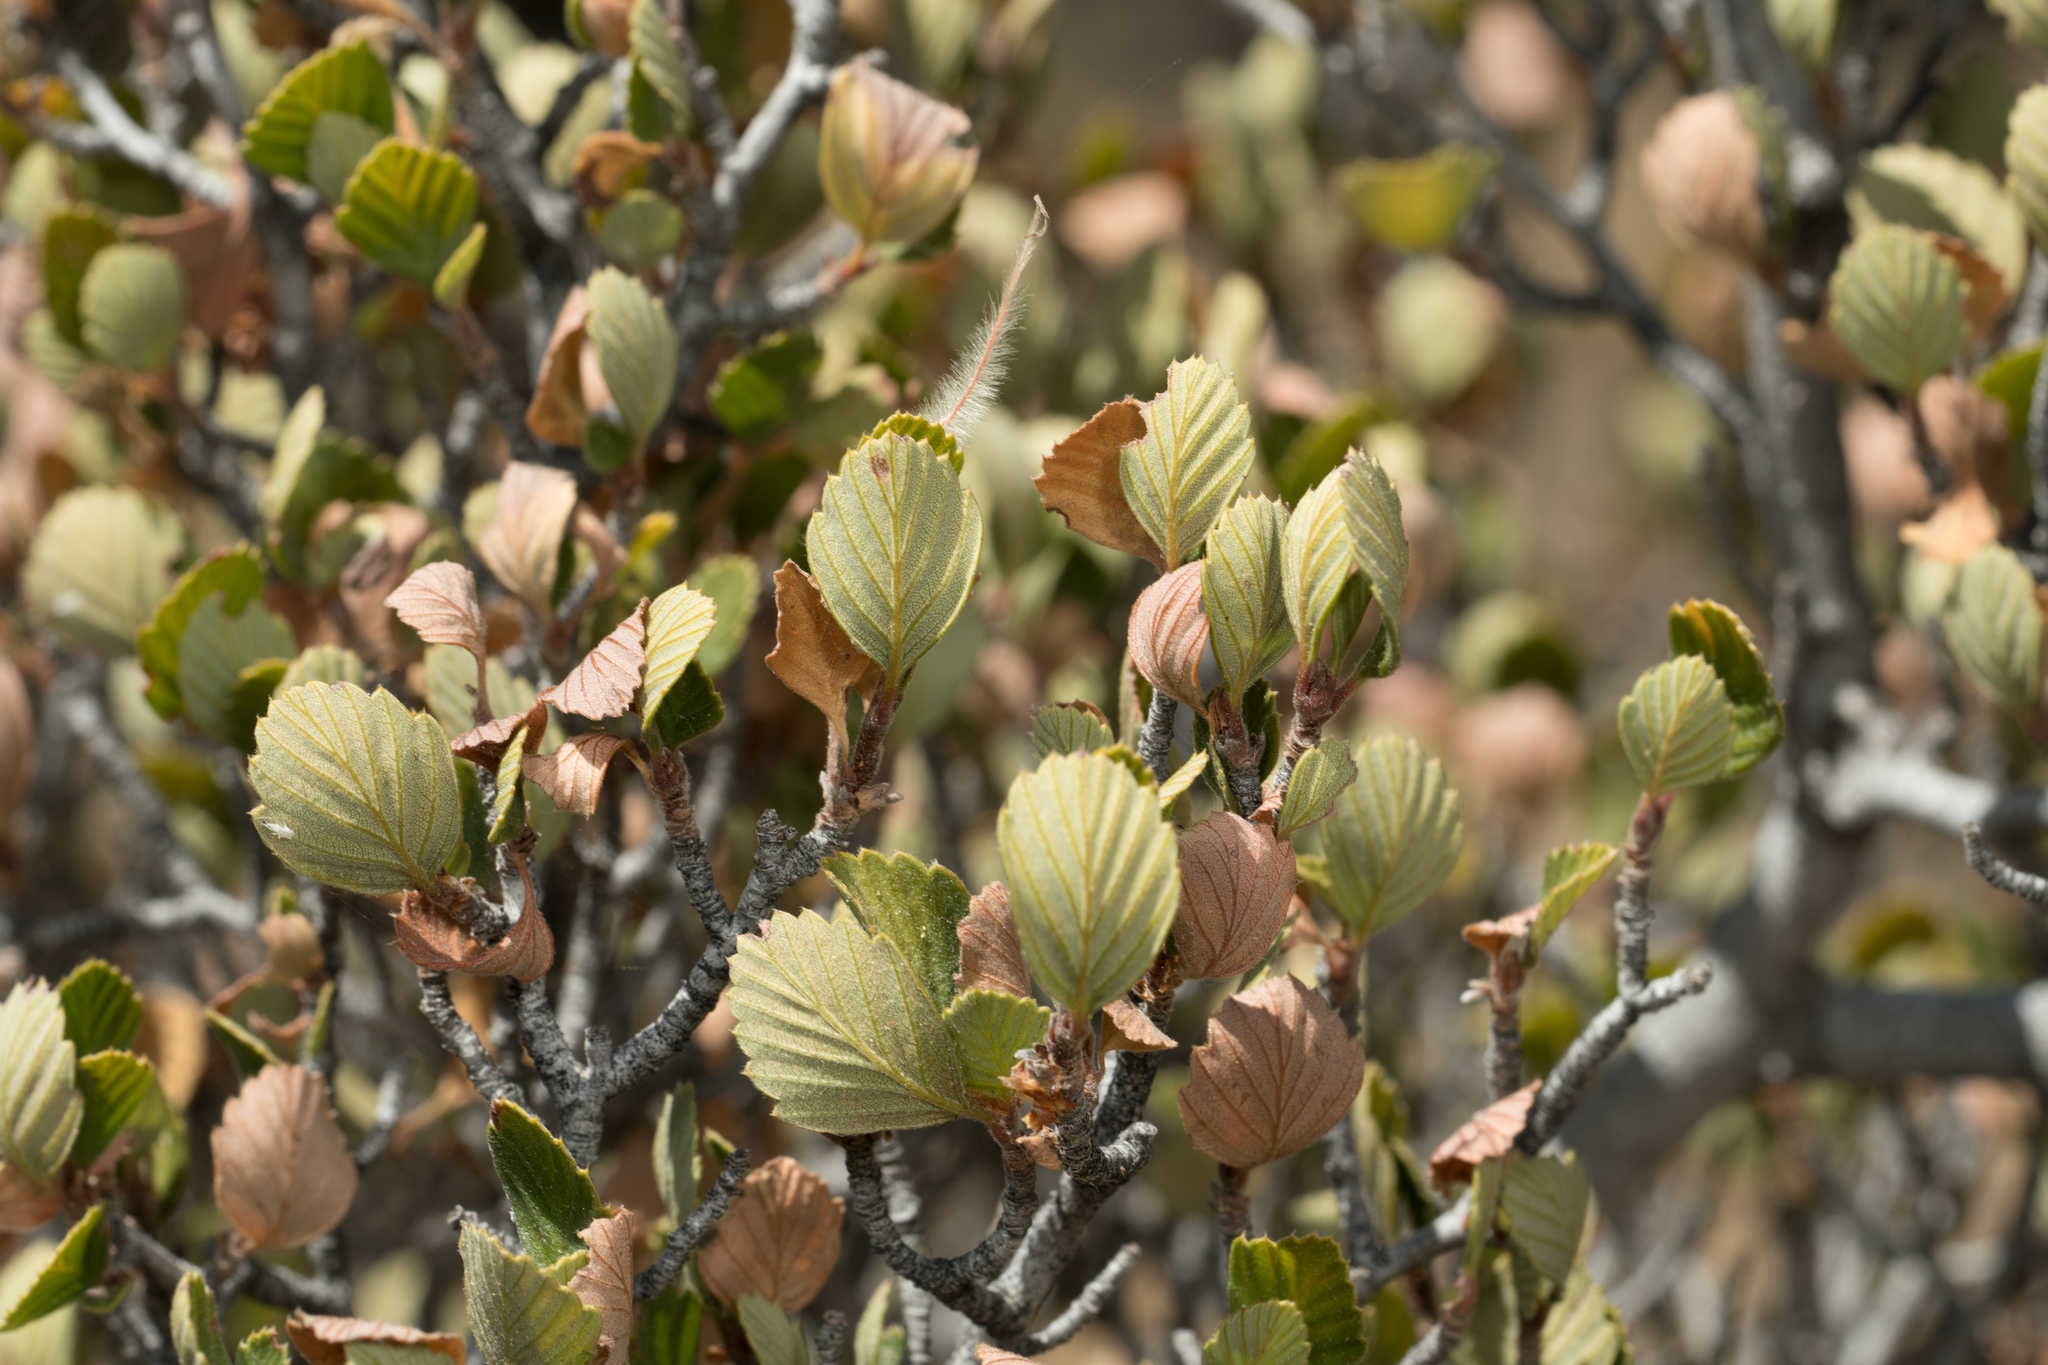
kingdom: Plantae
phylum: Tracheophyta
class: Magnoliopsida
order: Rosales
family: Rosaceae
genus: Cercocarpus
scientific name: Cercocarpus betuloides
